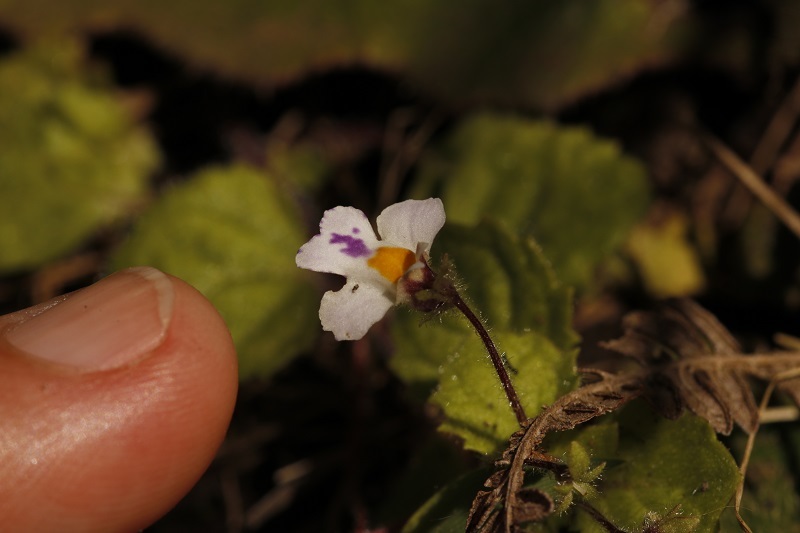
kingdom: Plantae
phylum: Tracheophyta
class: Magnoliopsida
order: Lamiales
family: Scrophulariaceae
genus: Diclis
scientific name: Diclis reptans
